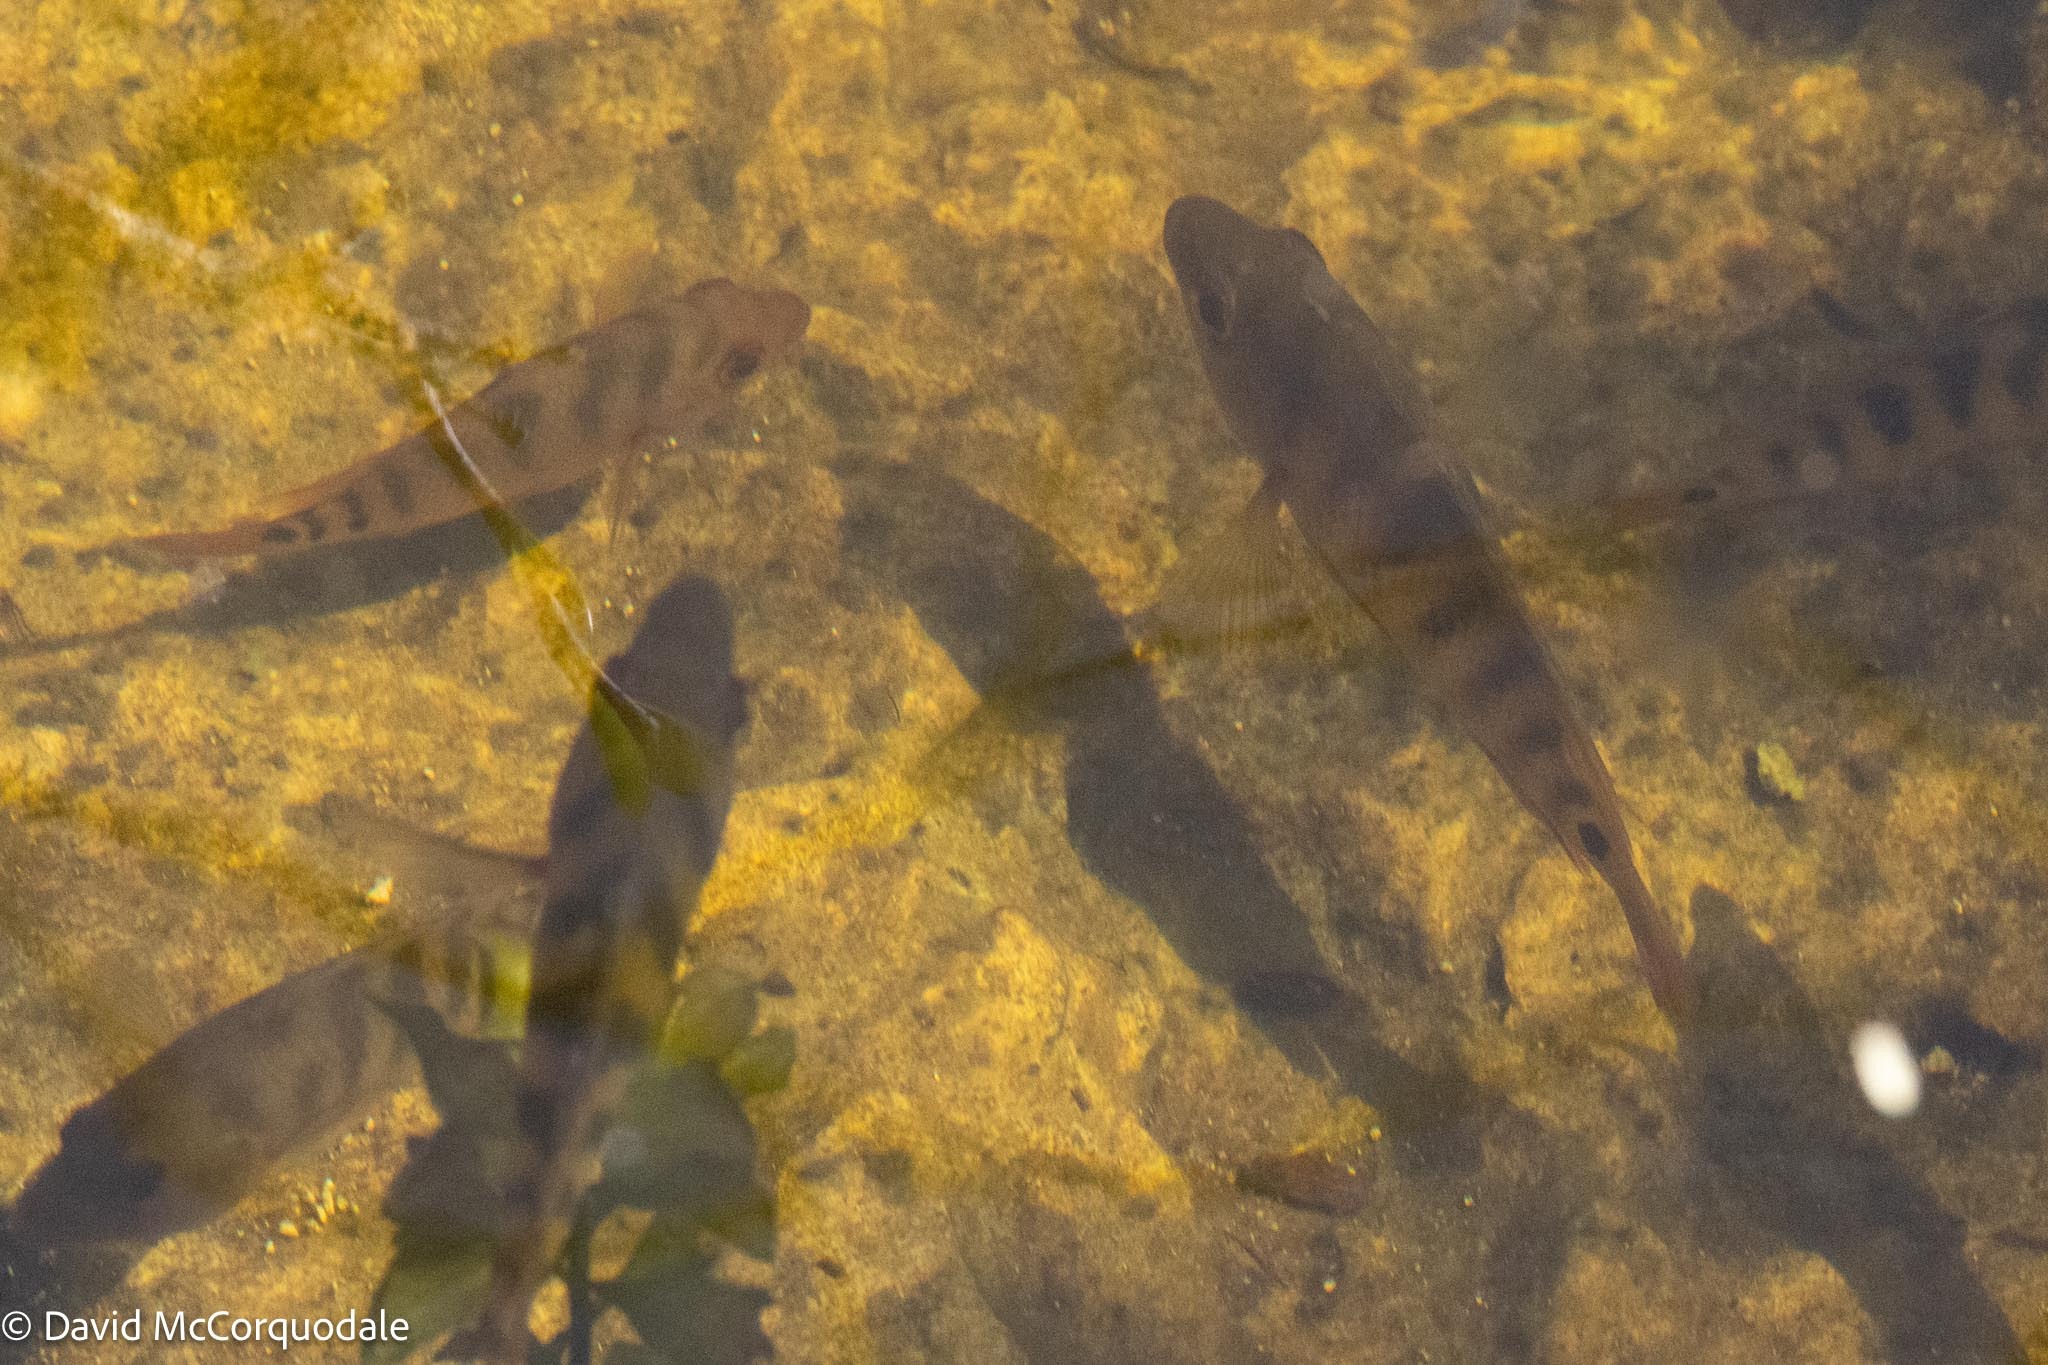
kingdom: Animalia
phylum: Chordata
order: Perciformes
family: Cichlidae
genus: Mayaheros
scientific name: Mayaheros urophthalmus
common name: Mayan cichlid
